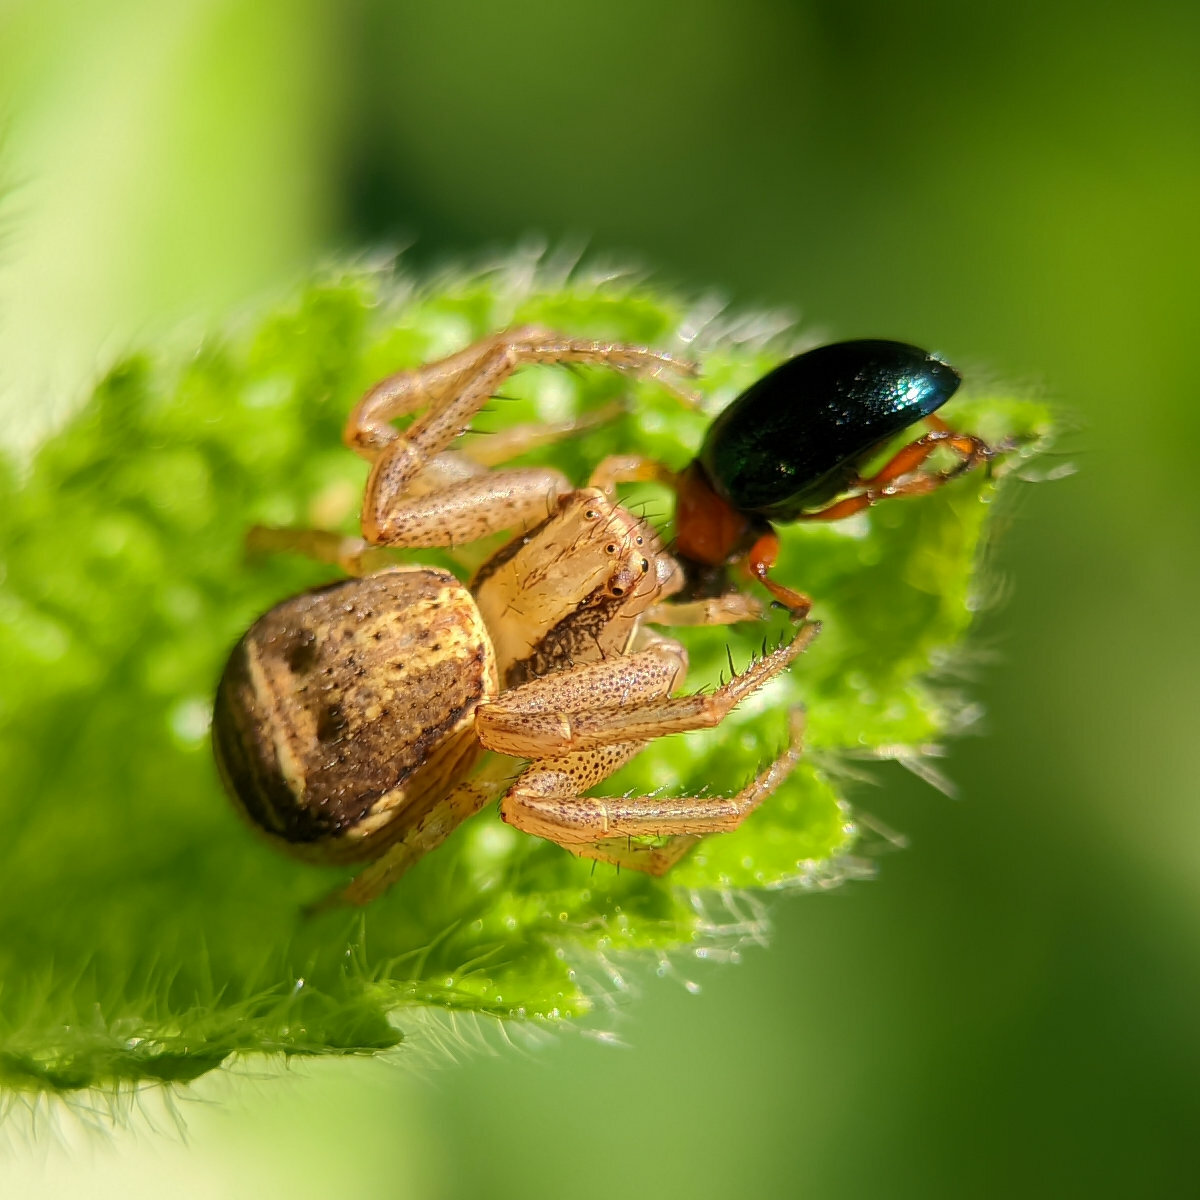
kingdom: Animalia
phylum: Arthropoda
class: Arachnida
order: Araneae
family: Thomisidae
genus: Xysticus
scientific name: Xysticus ulmi
